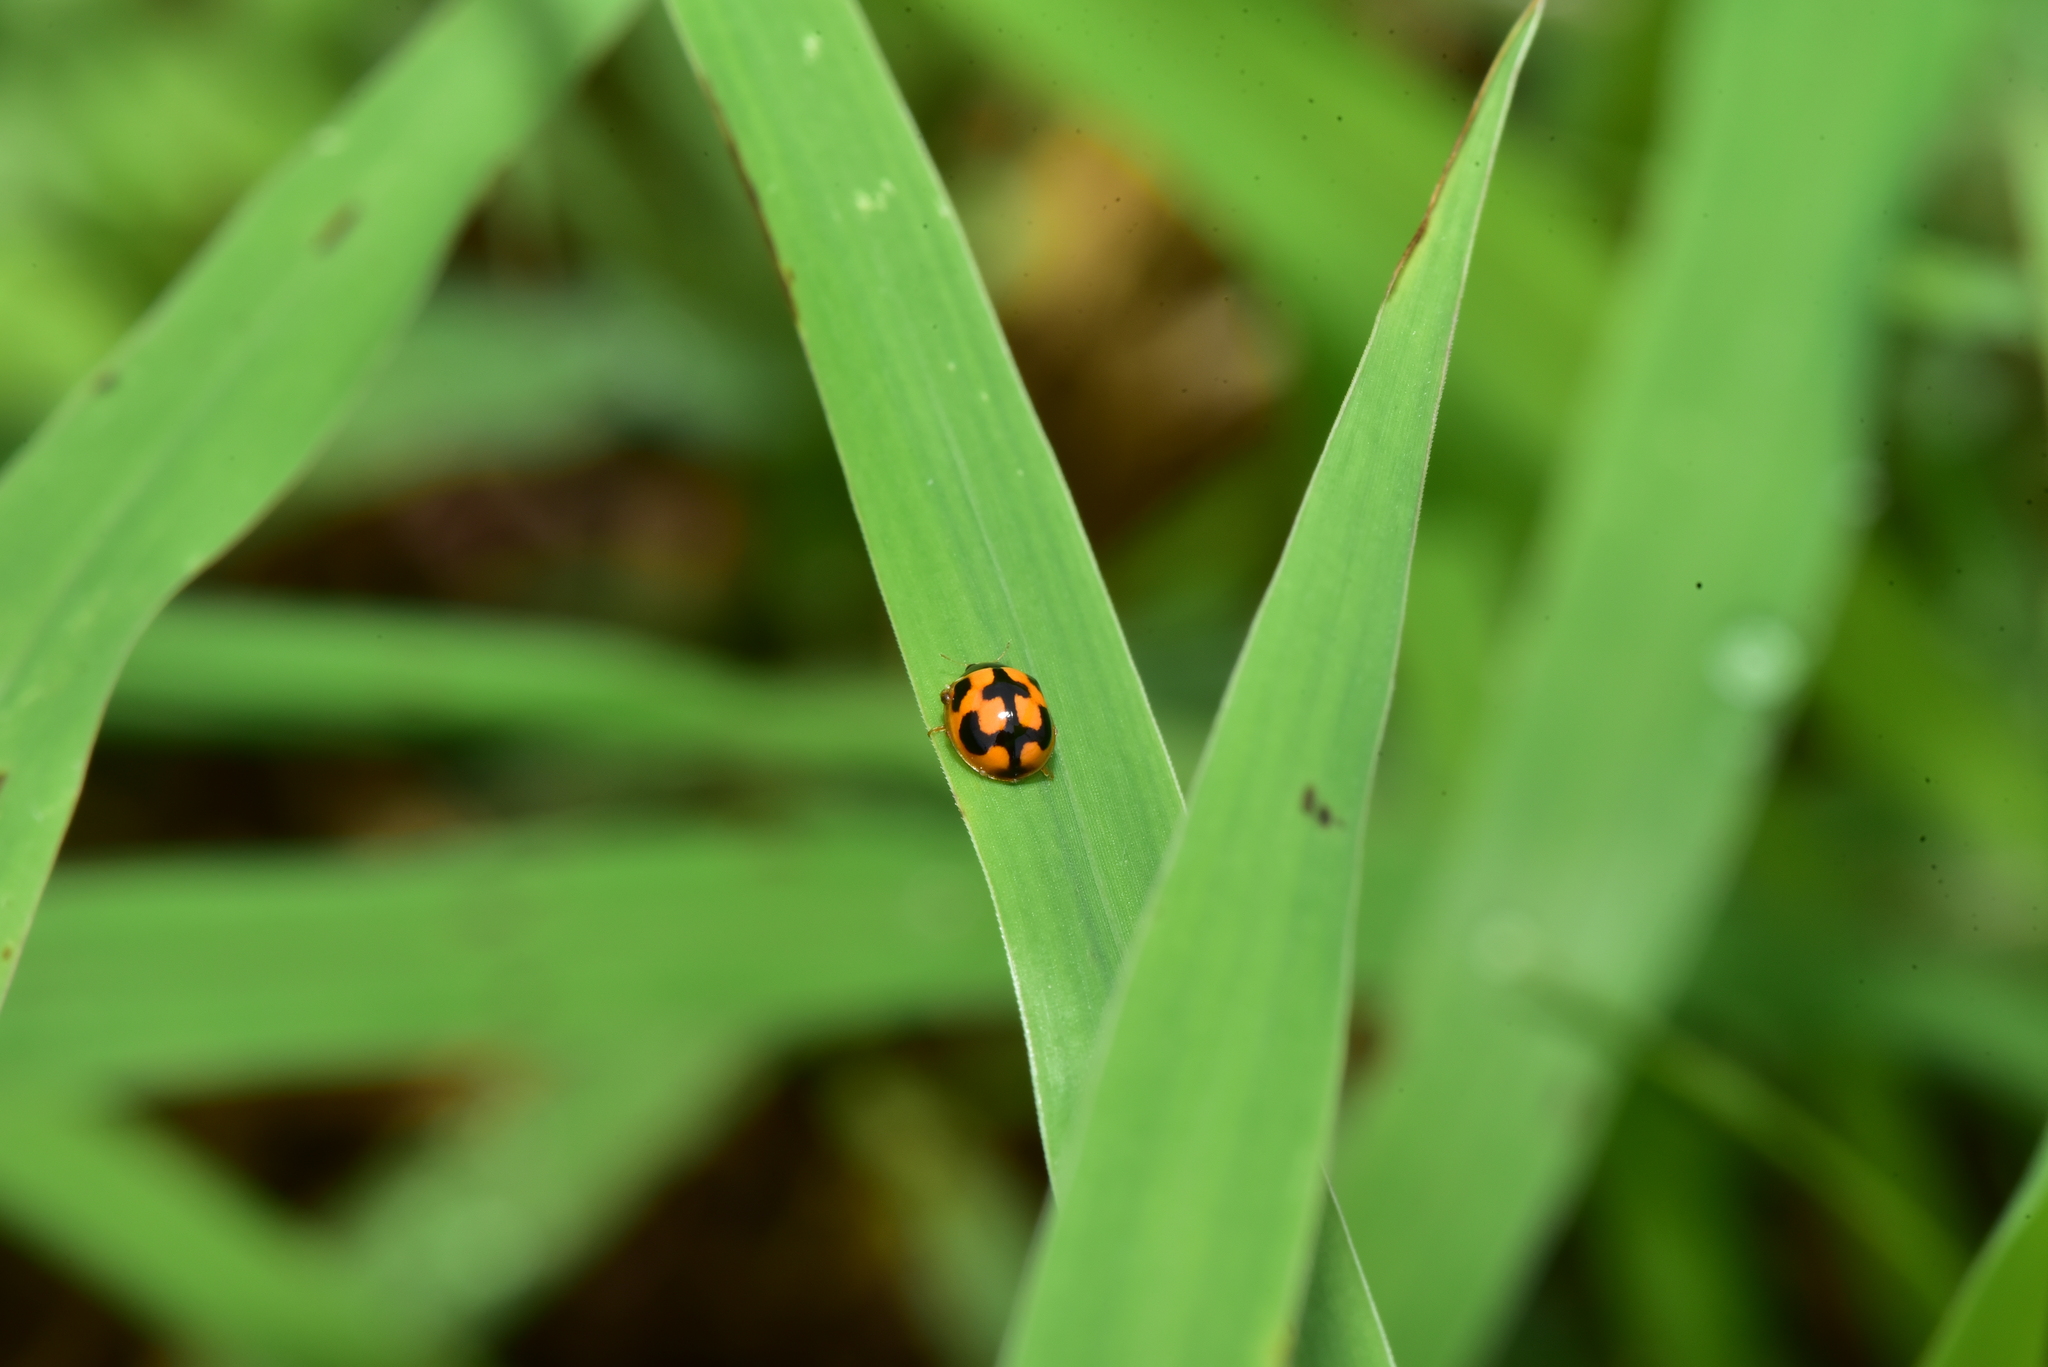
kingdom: Animalia
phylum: Arthropoda
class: Insecta
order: Coleoptera
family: Coccinellidae
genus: Propylea
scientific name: Propylea japonica
